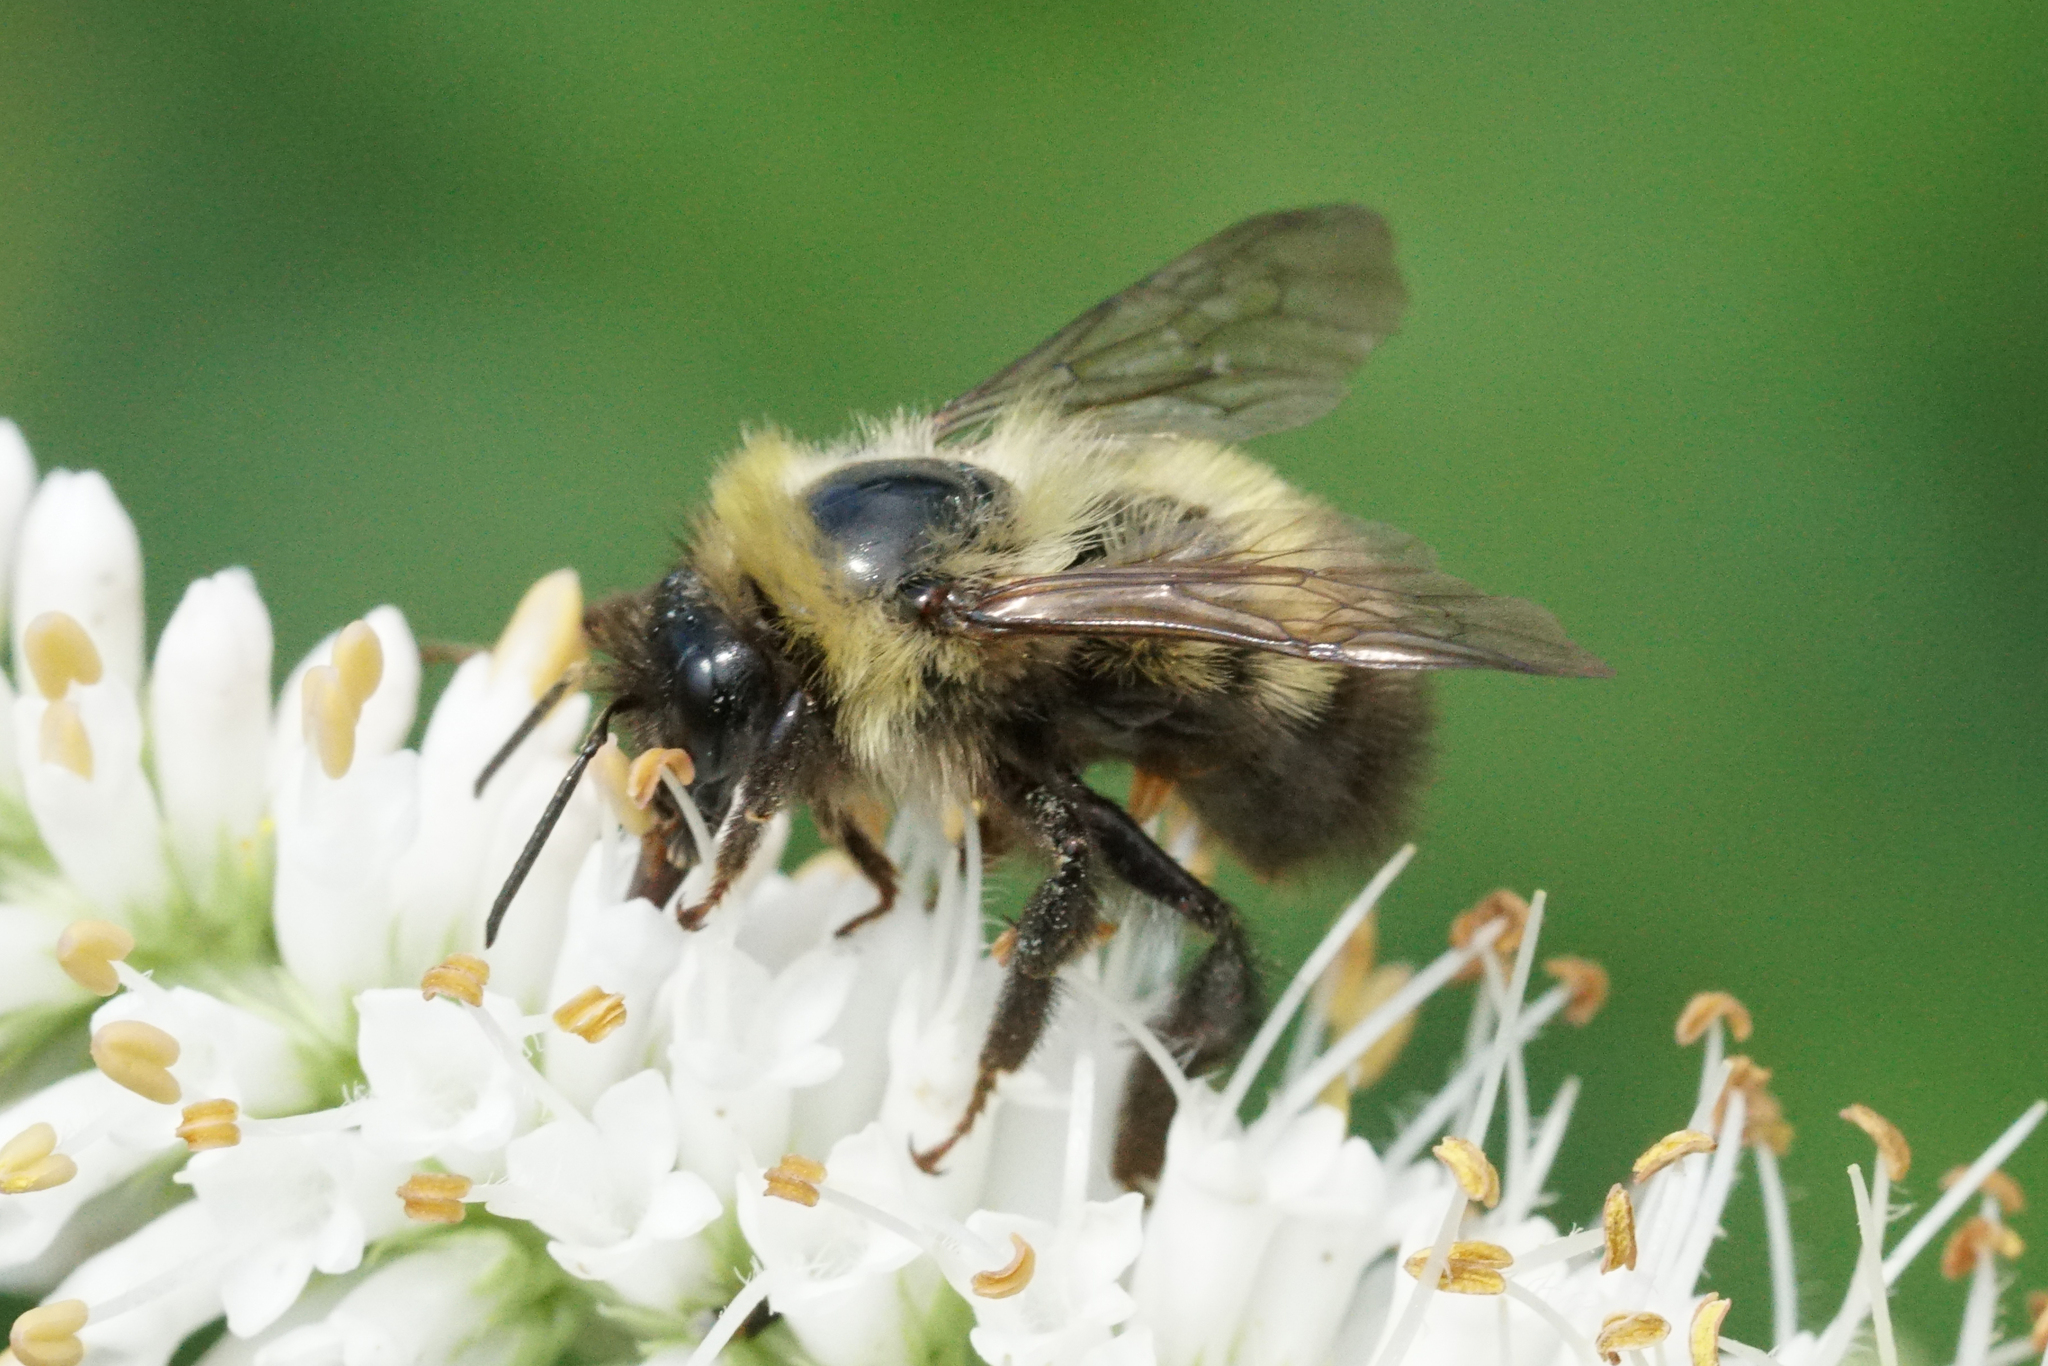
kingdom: Animalia
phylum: Arthropoda
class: Insecta
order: Hymenoptera
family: Apidae
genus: Bombus
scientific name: Bombus perplexus
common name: Confusing bumble bee
